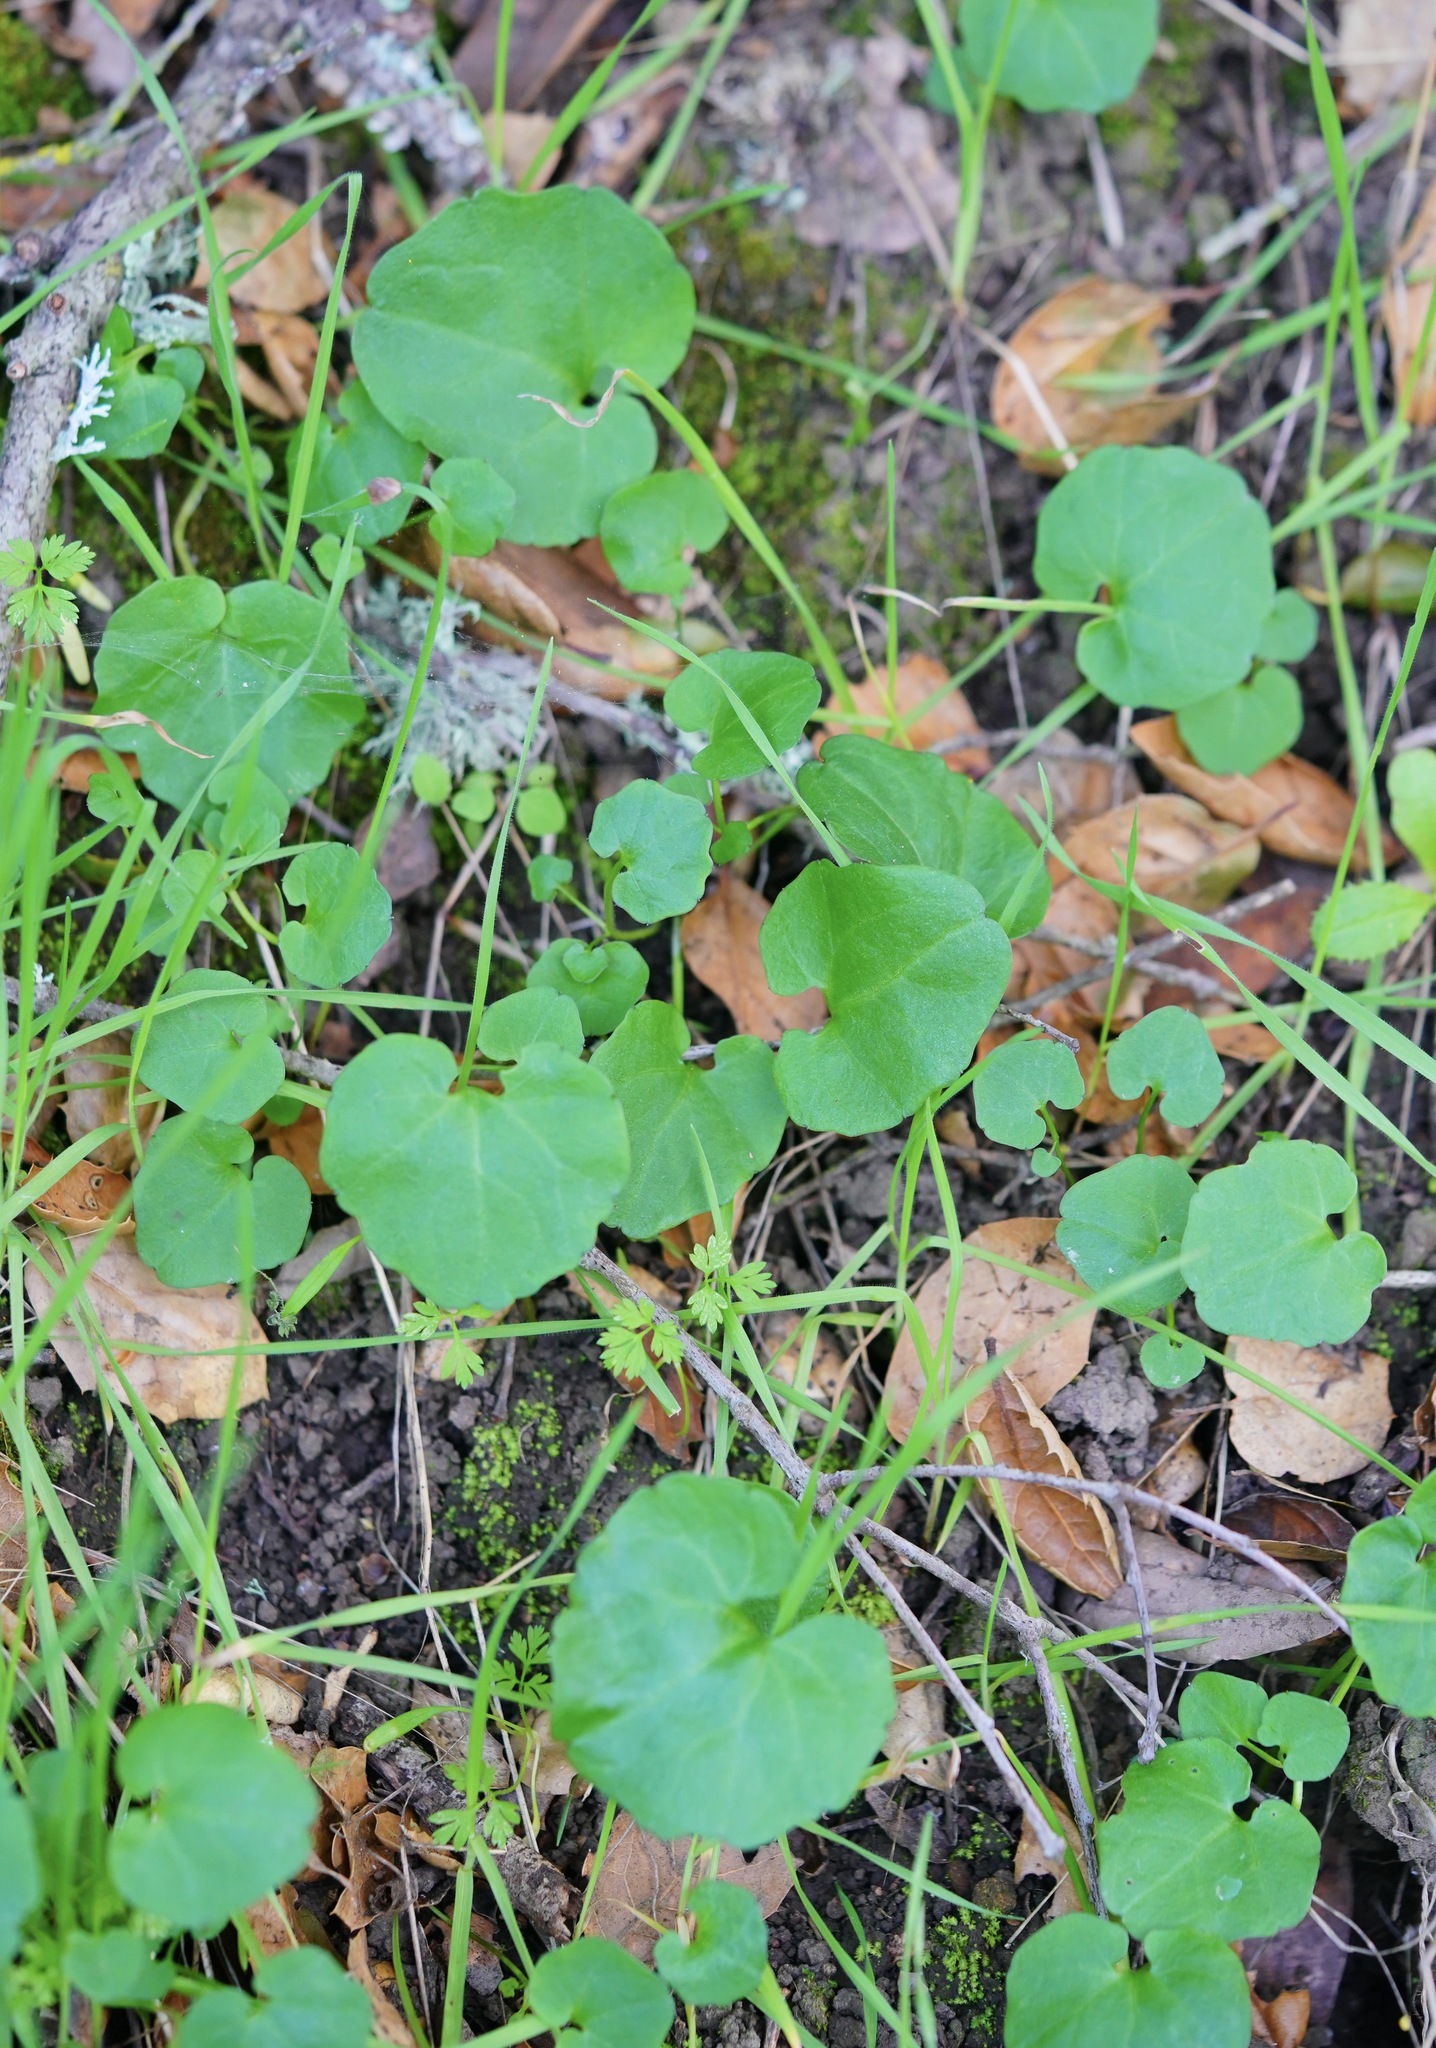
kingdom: Plantae
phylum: Tracheophyta
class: Magnoliopsida
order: Brassicales
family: Brassicaceae
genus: Cardamine
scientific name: Cardamine californica
